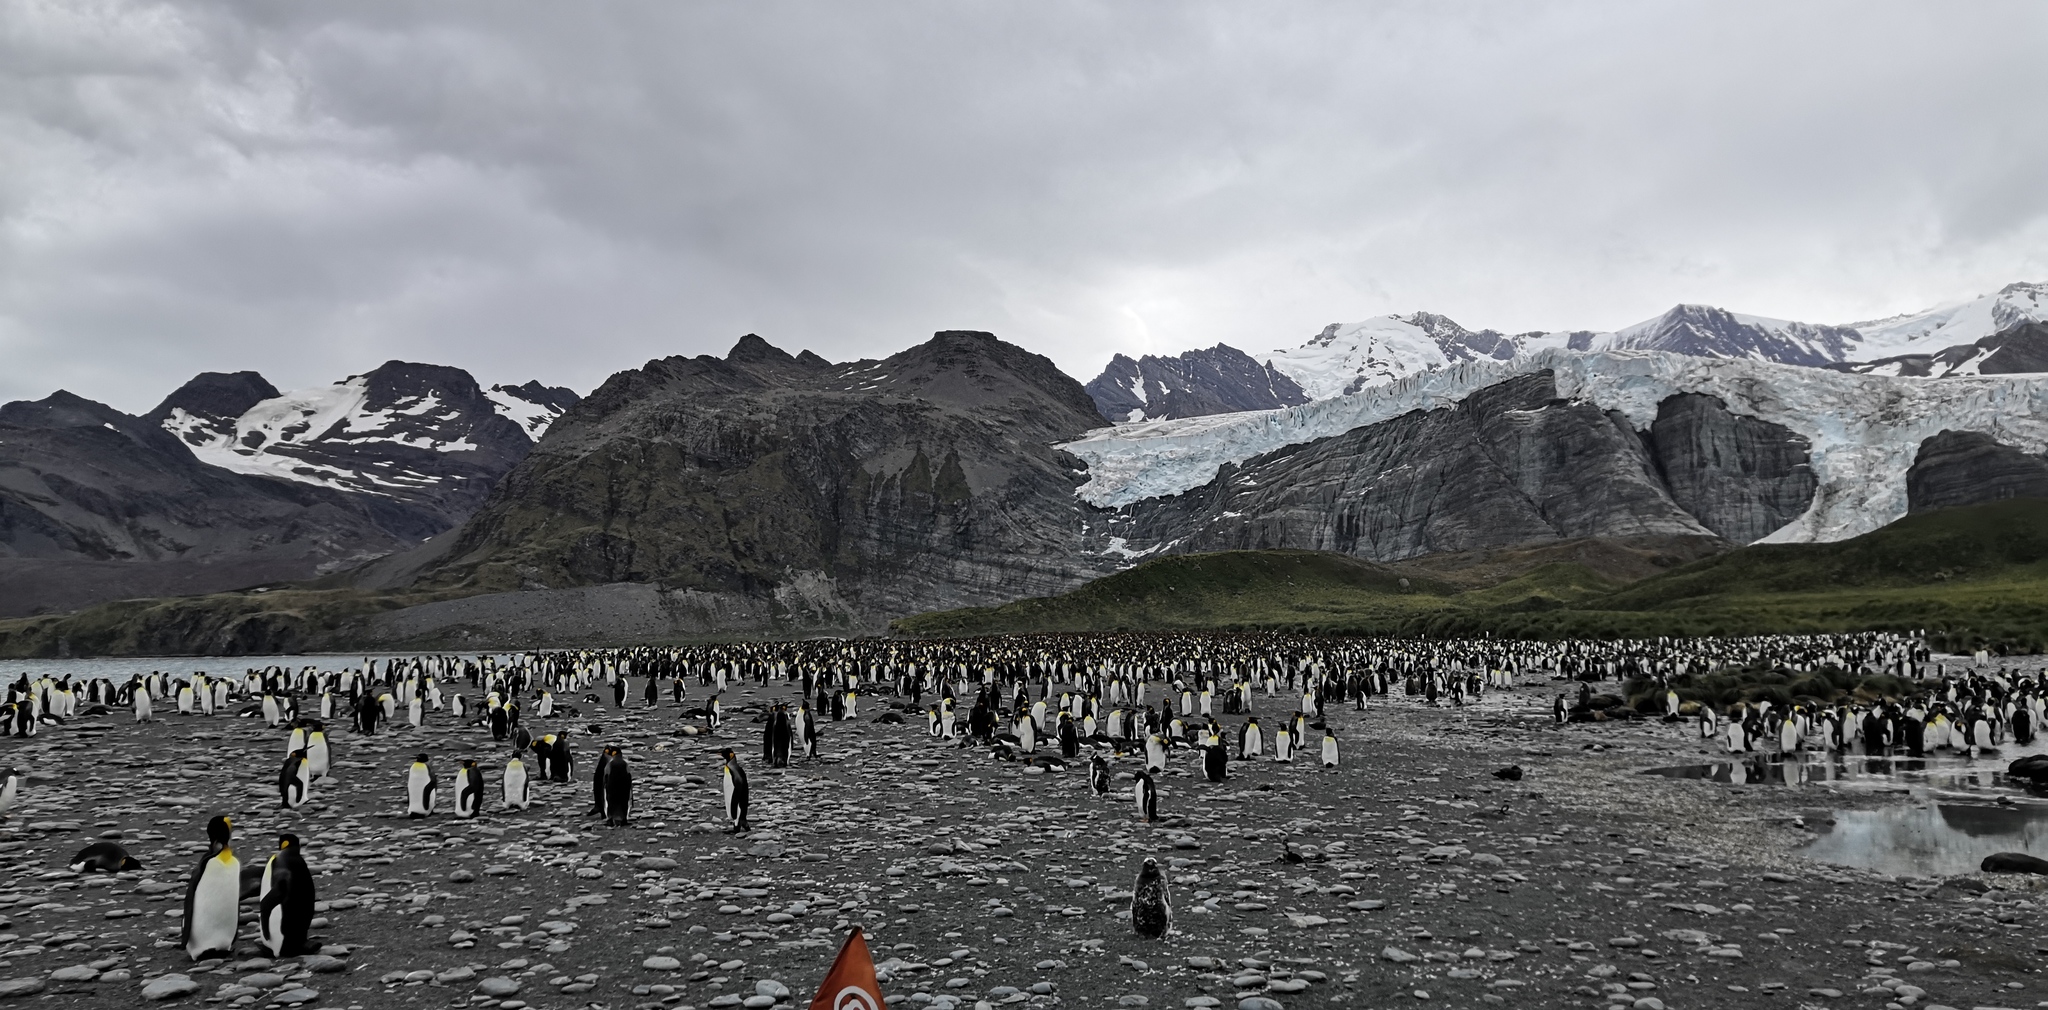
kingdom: Animalia
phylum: Chordata
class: Aves
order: Sphenisciformes
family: Spheniscidae
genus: Aptenodytes
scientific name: Aptenodytes patagonicus
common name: King penguin
